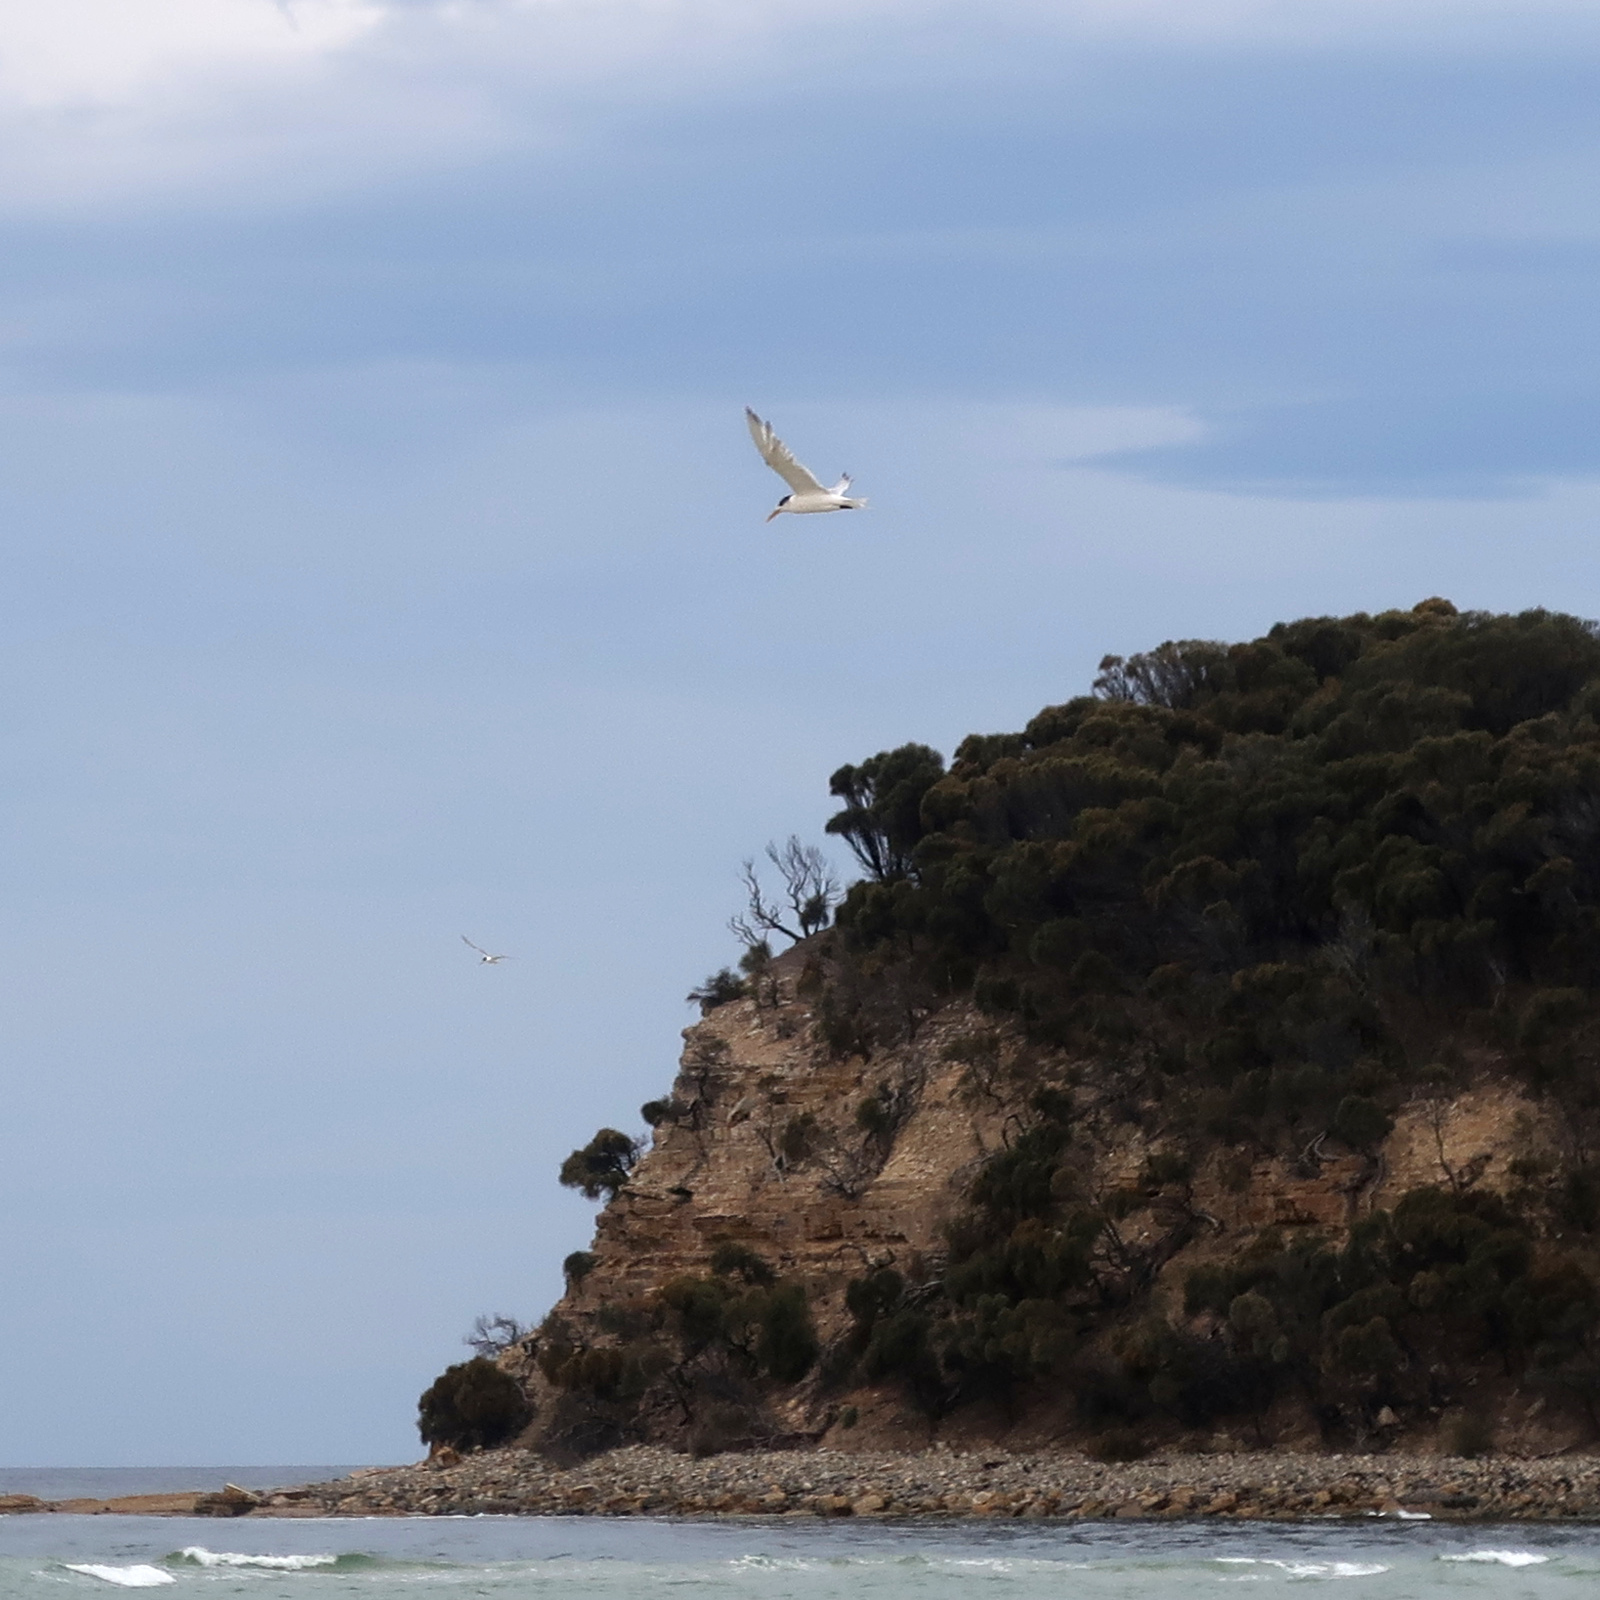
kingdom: Animalia
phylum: Chordata
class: Aves
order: Charadriiformes
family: Laridae
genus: Thalasseus
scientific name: Thalasseus bergii
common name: Greater crested tern
